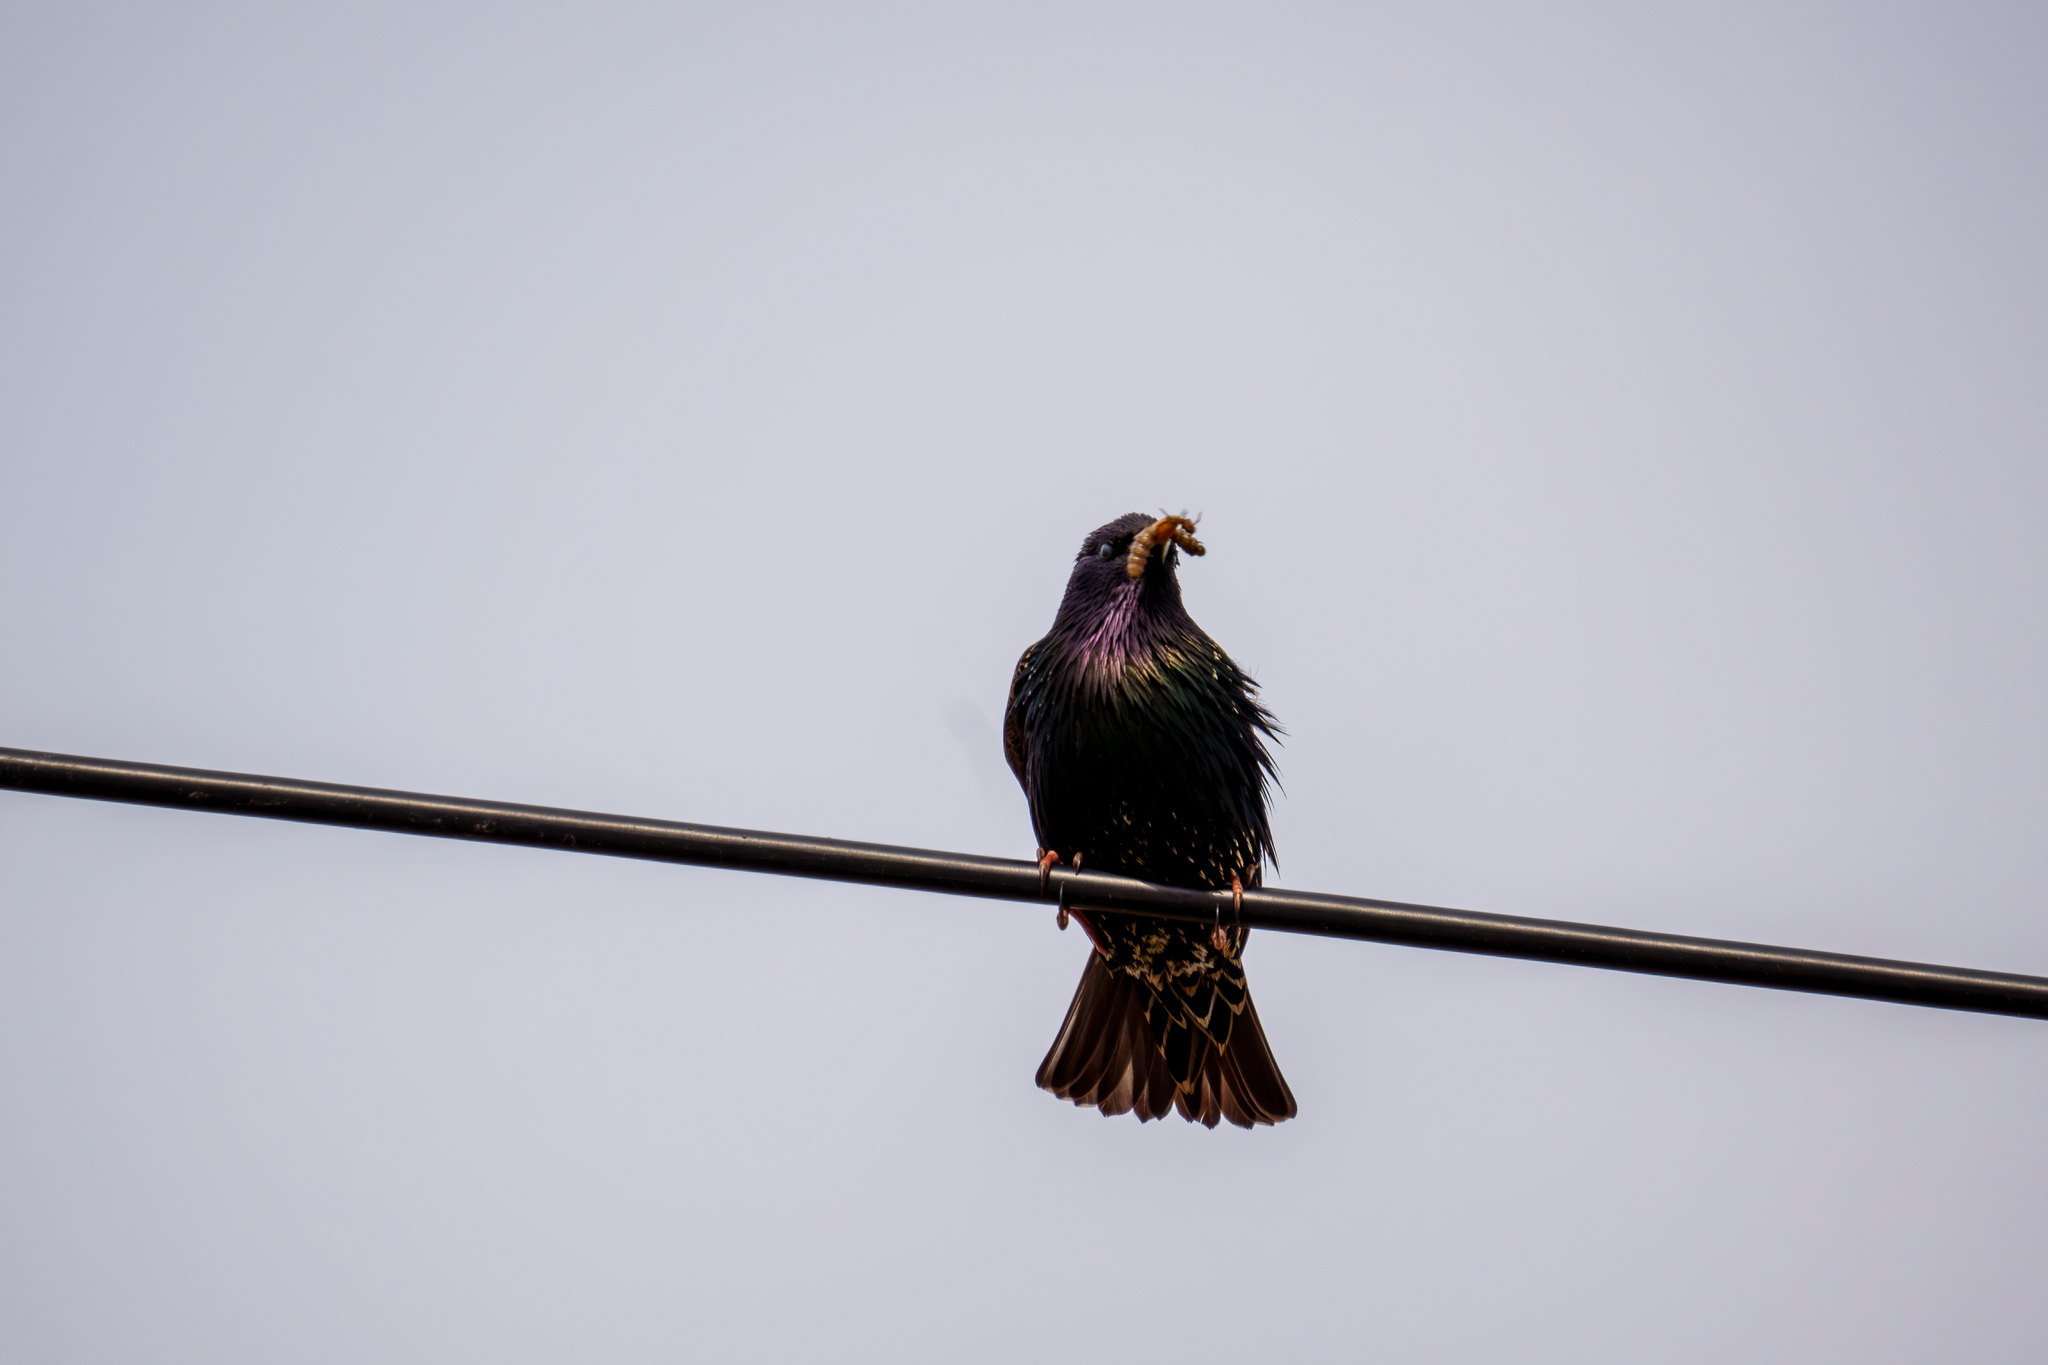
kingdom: Animalia
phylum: Chordata
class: Aves
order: Passeriformes
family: Sturnidae
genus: Sturnus
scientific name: Sturnus vulgaris
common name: Common starling
